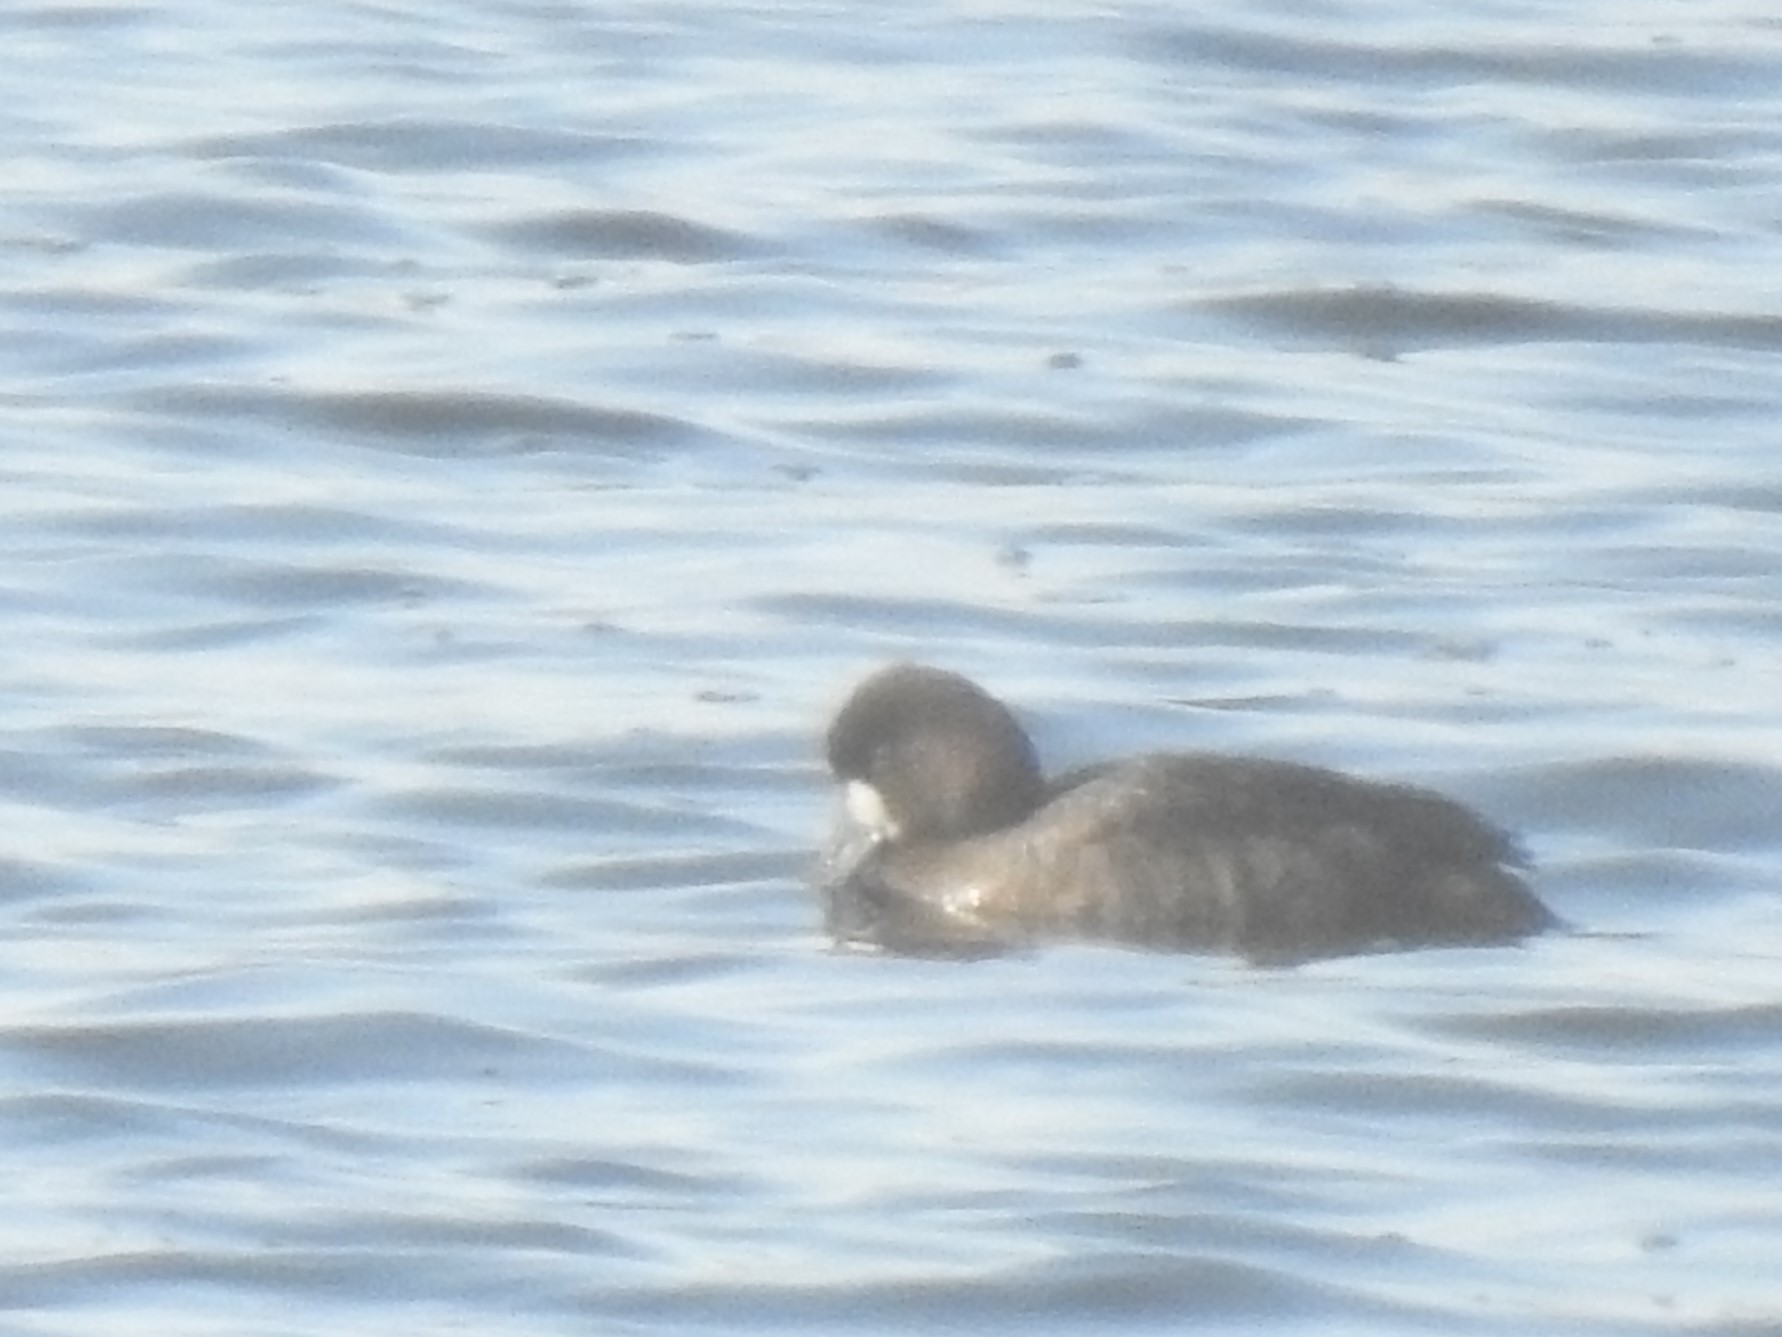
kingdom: Animalia
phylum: Chordata
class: Aves
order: Anseriformes
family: Anatidae
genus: Aythya
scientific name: Aythya affinis
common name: Lesser scaup
